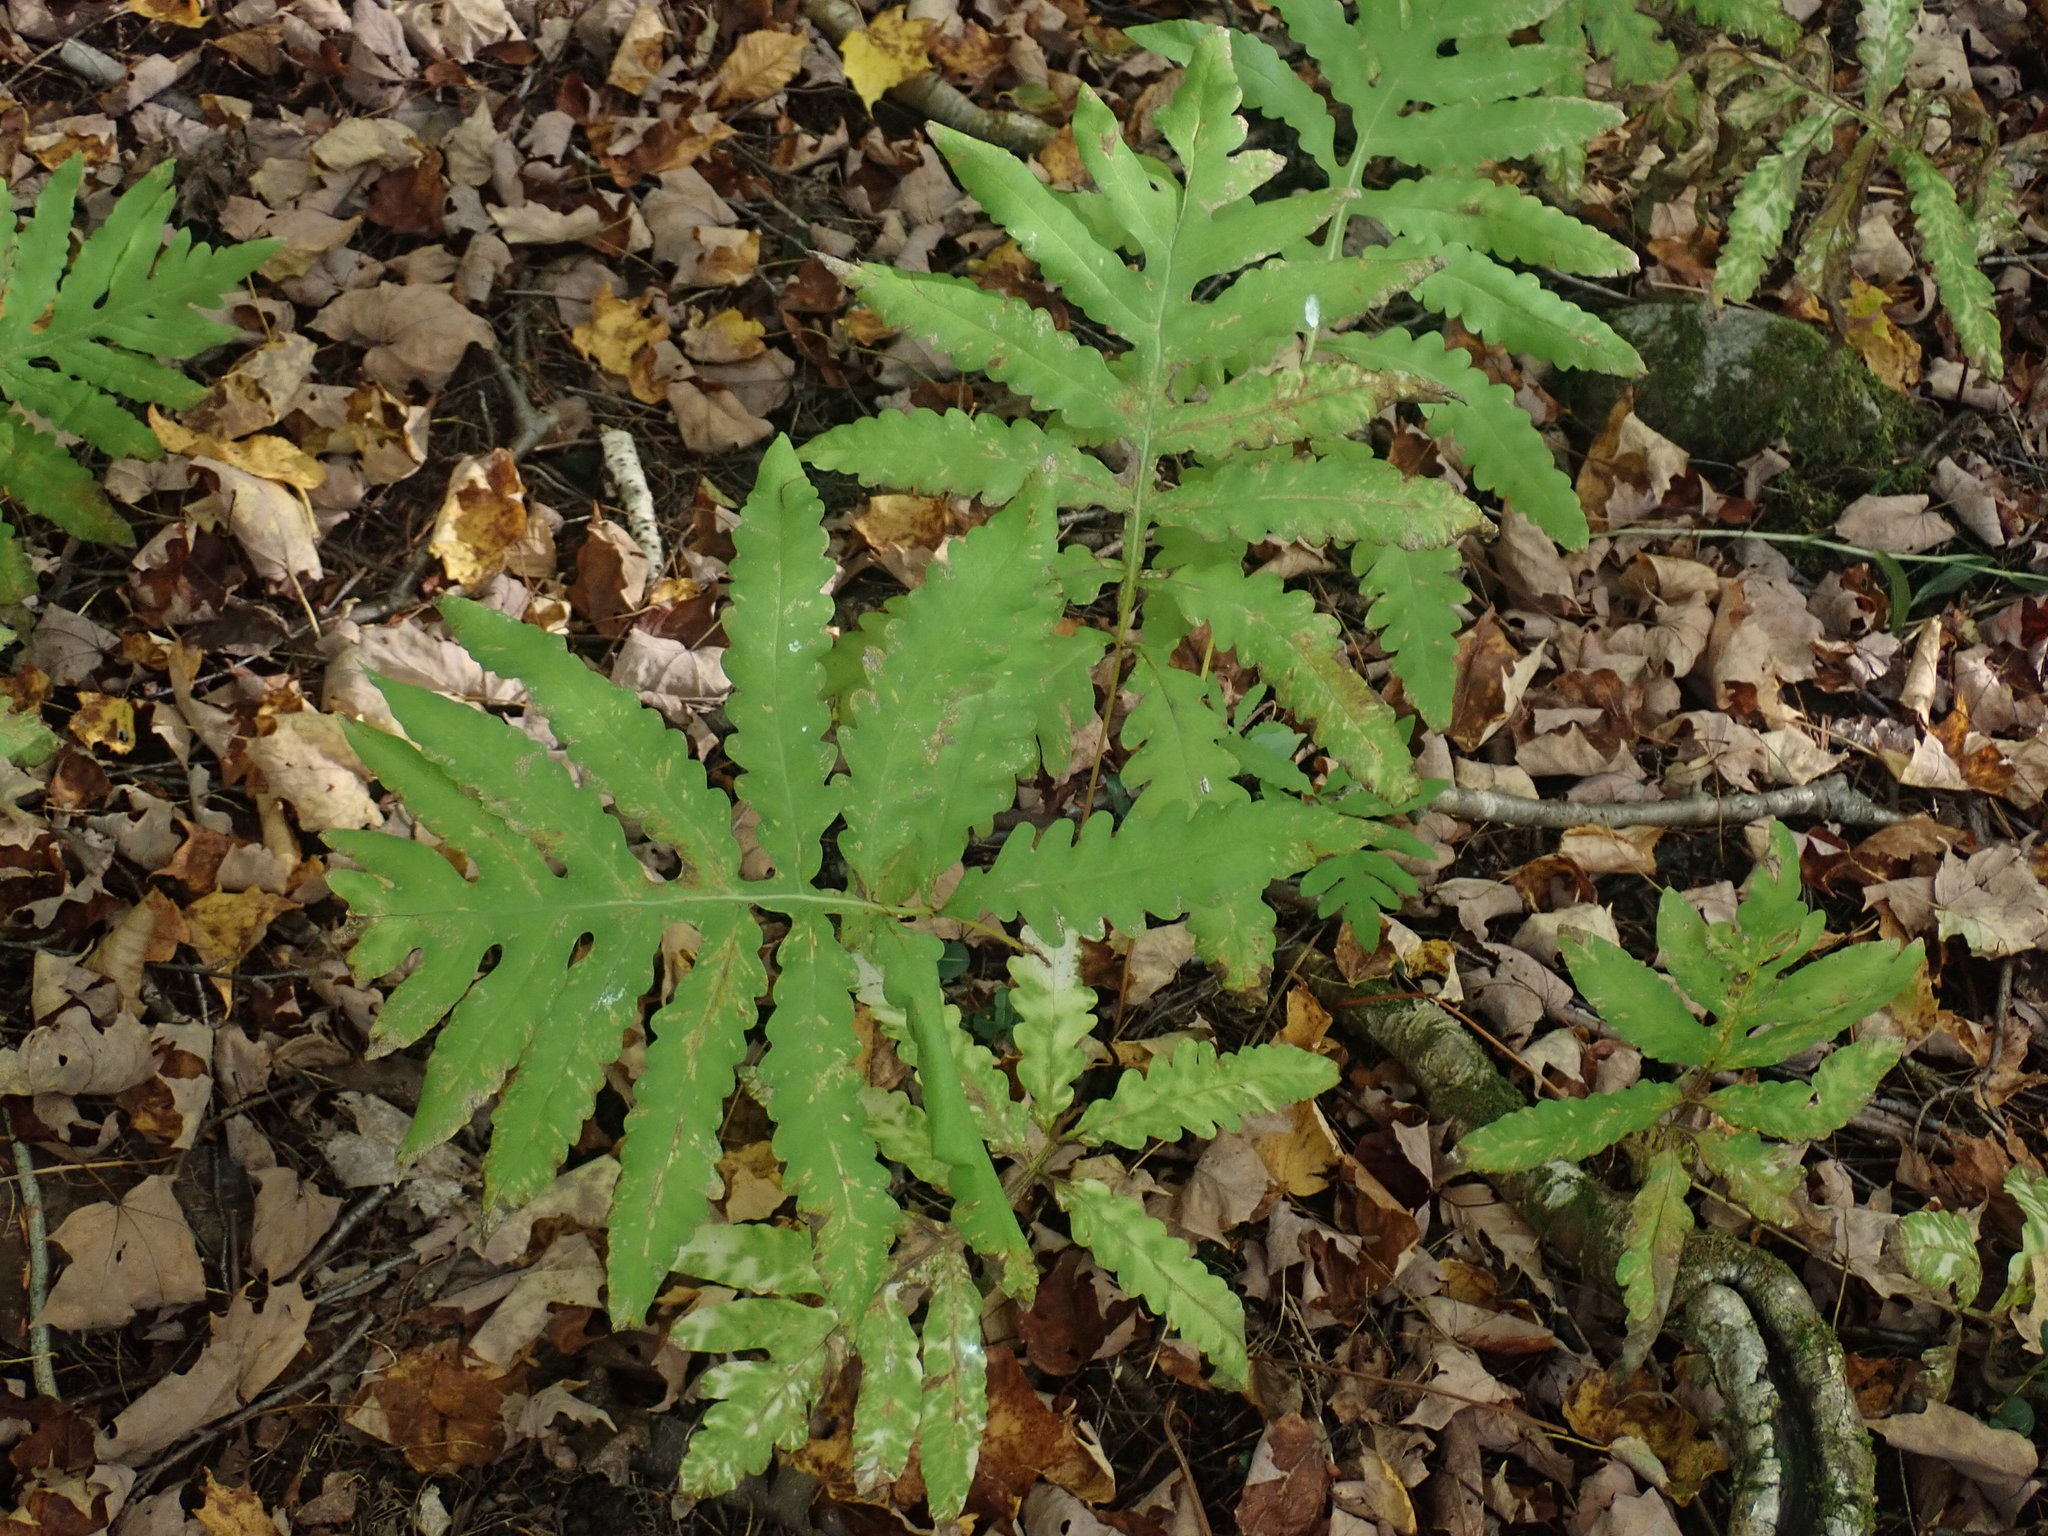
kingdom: Plantae
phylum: Tracheophyta
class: Polypodiopsida
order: Polypodiales
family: Onocleaceae
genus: Onoclea
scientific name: Onoclea sensibilis
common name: Sensitive fern
